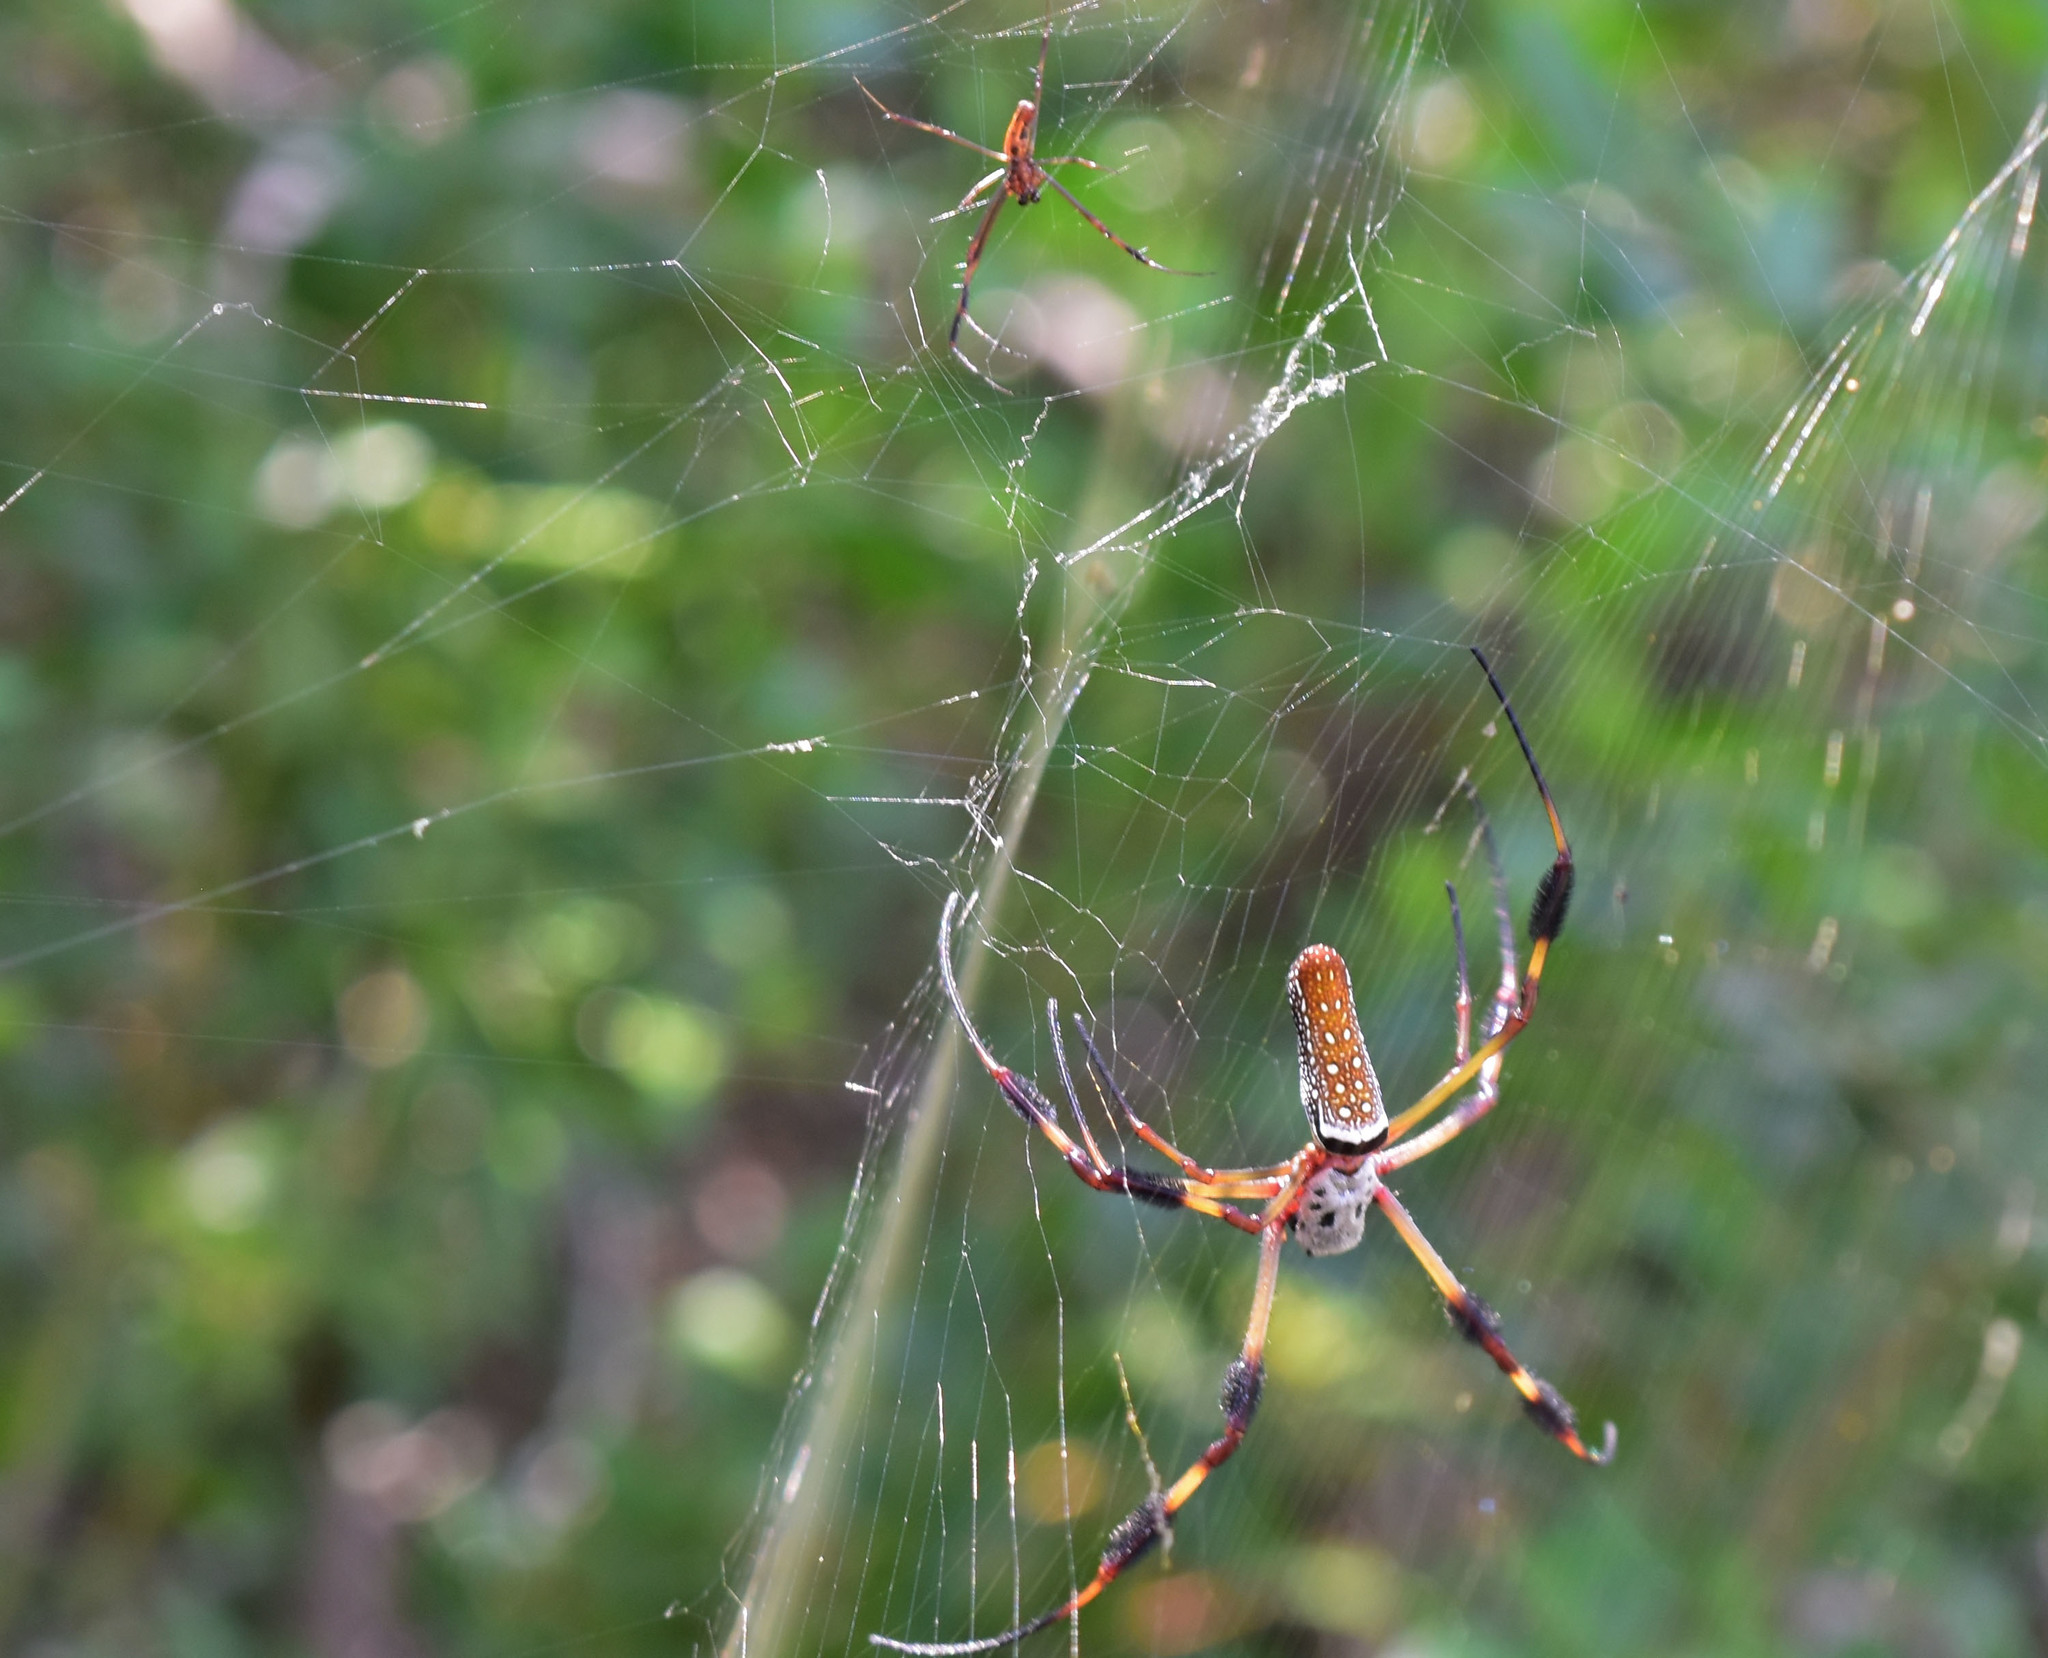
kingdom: Animalia
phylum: Arthropoda
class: Arachnida
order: Araneae
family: Araneidae
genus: Trichonephila
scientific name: Trichonephila clavipes
